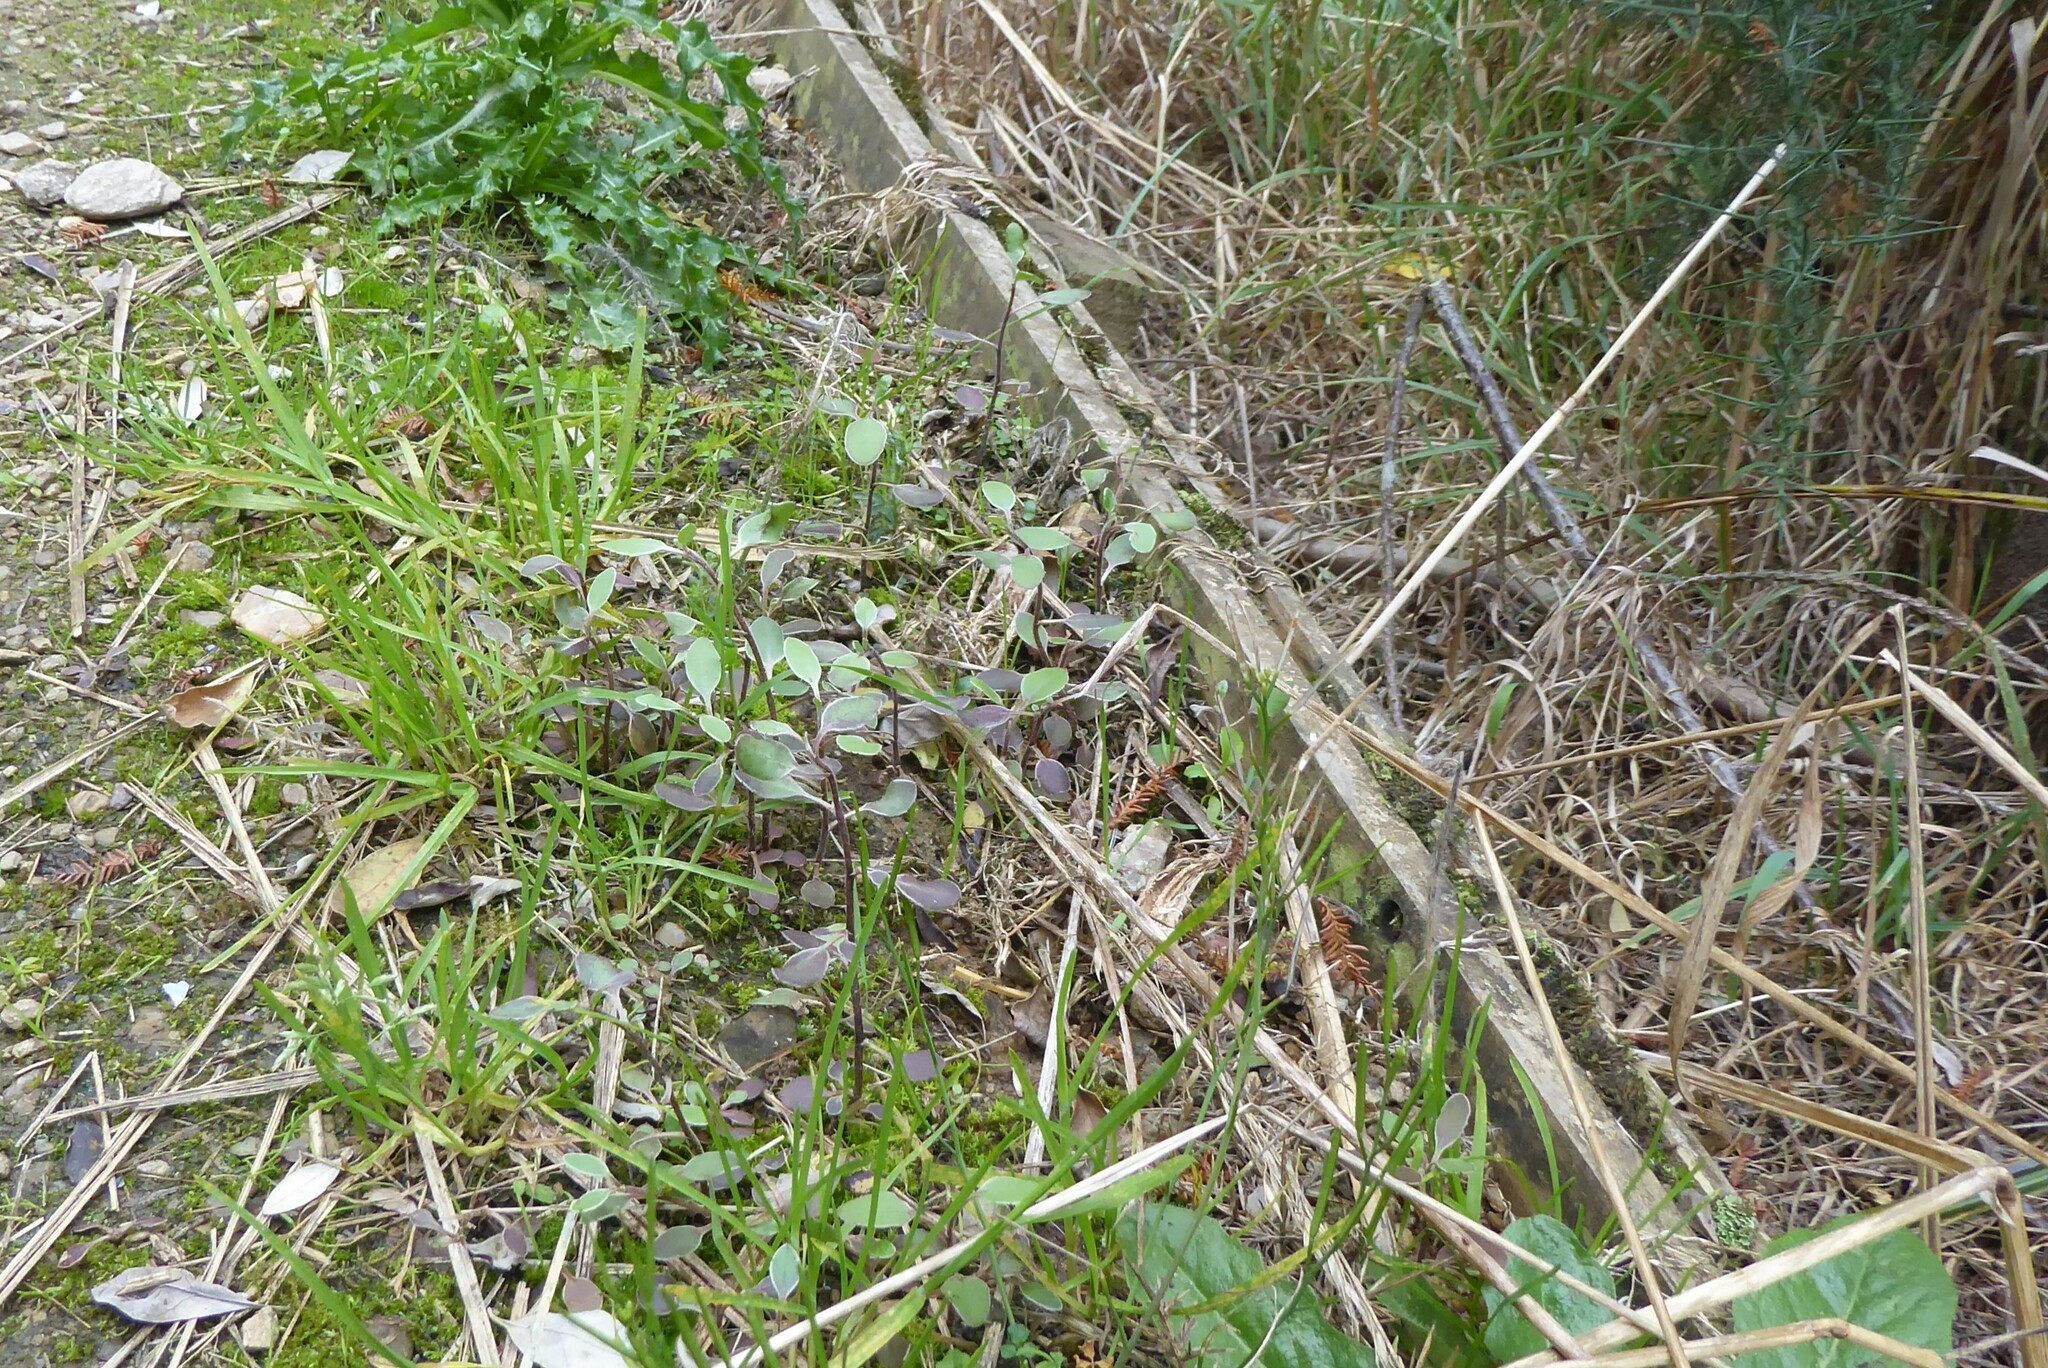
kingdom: Plantae
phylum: Tracheophyta
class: Magnoliopsida
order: Asterales
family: Asteraceae
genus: Olearia
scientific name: Olearia hectorii
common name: Deciduous tree daisy
